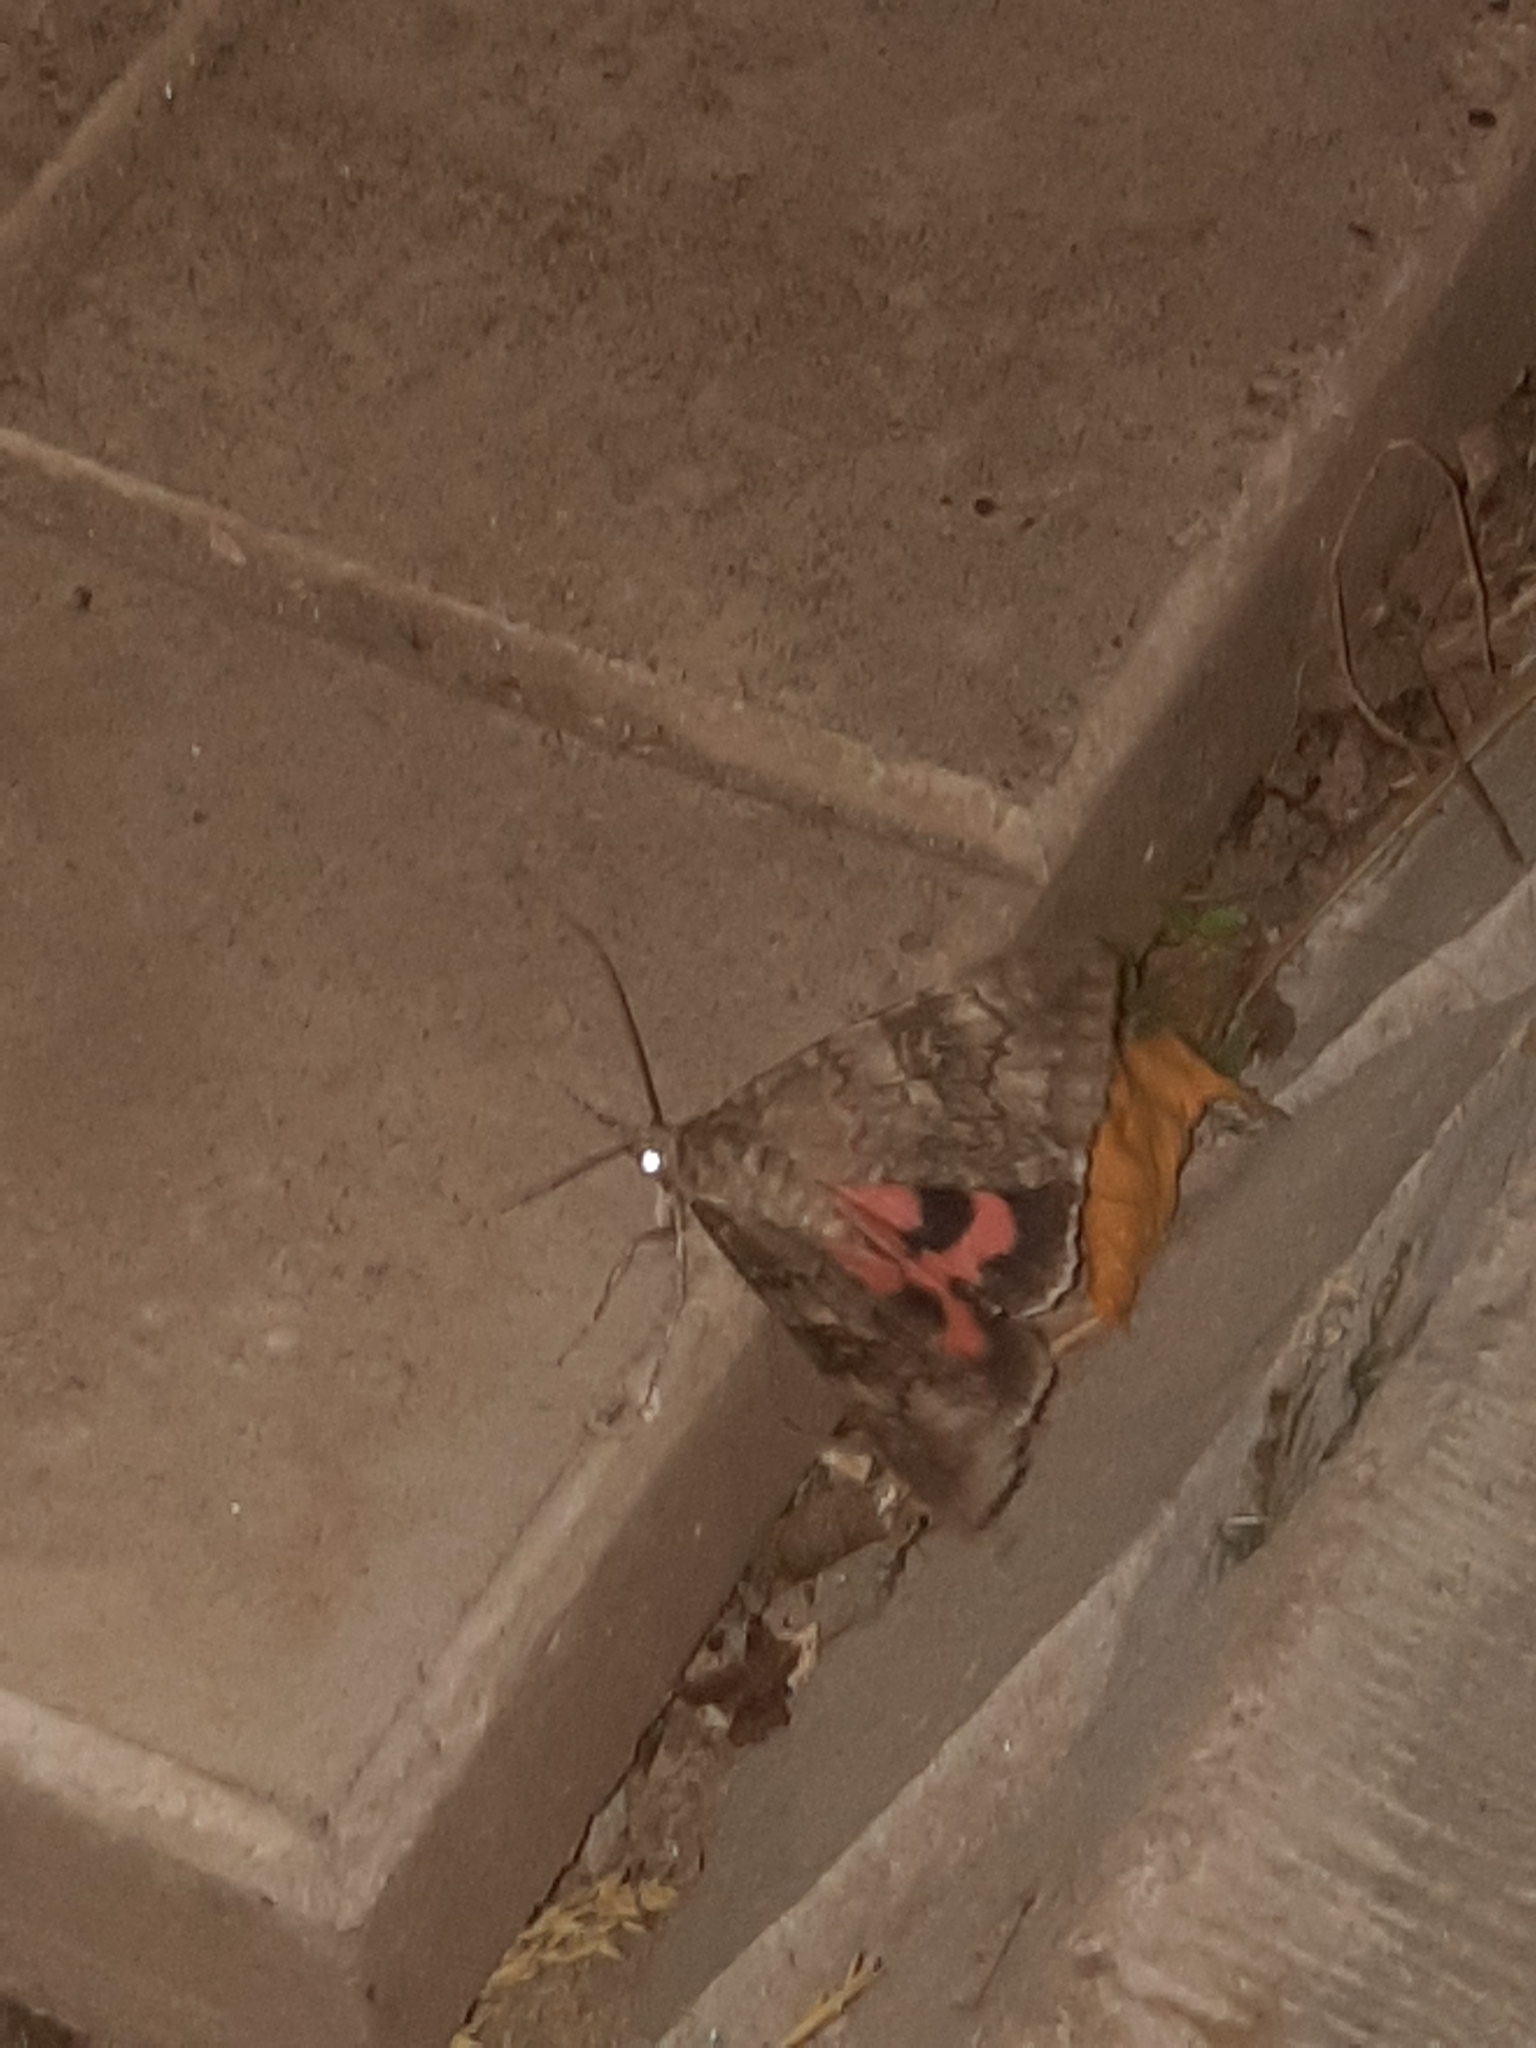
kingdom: Animalia
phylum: Arthropoda
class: Insecta
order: Lepidoptera
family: Erebidae
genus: Catocala
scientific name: Catocala nupta
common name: Red underwing
